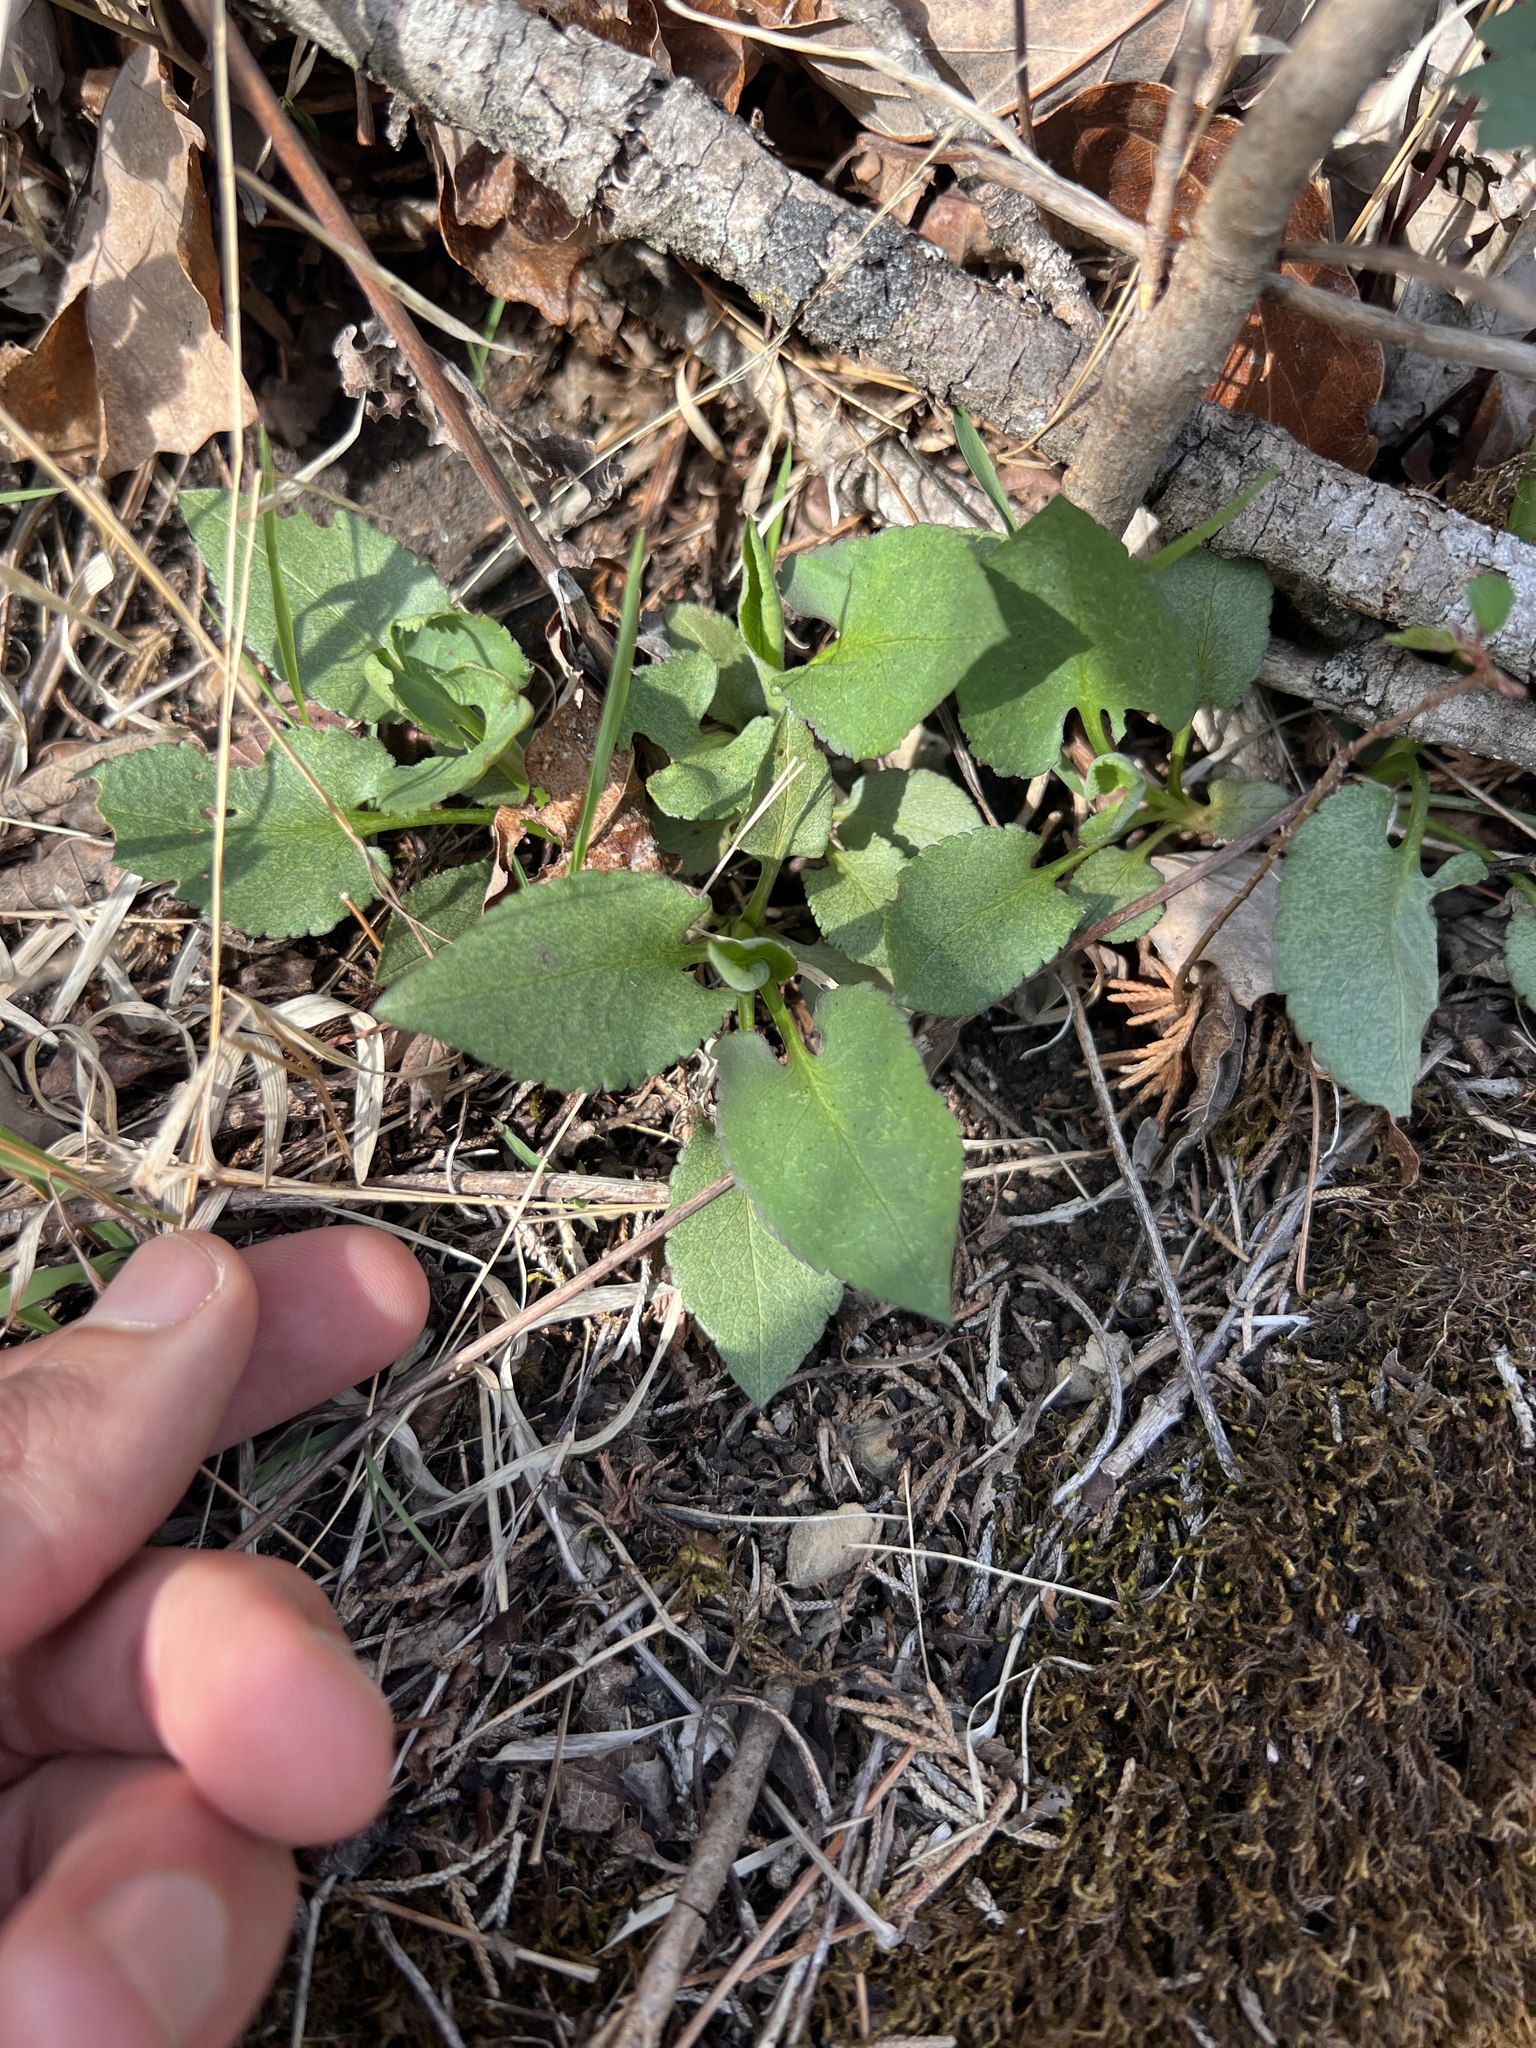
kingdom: Plantae
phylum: Tracheophyta
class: Magnoliopsida
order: Asterales
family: Asteraceae
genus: Symphyotrichum
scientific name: Symphyotrichum drummondii
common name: Drummond's aster
